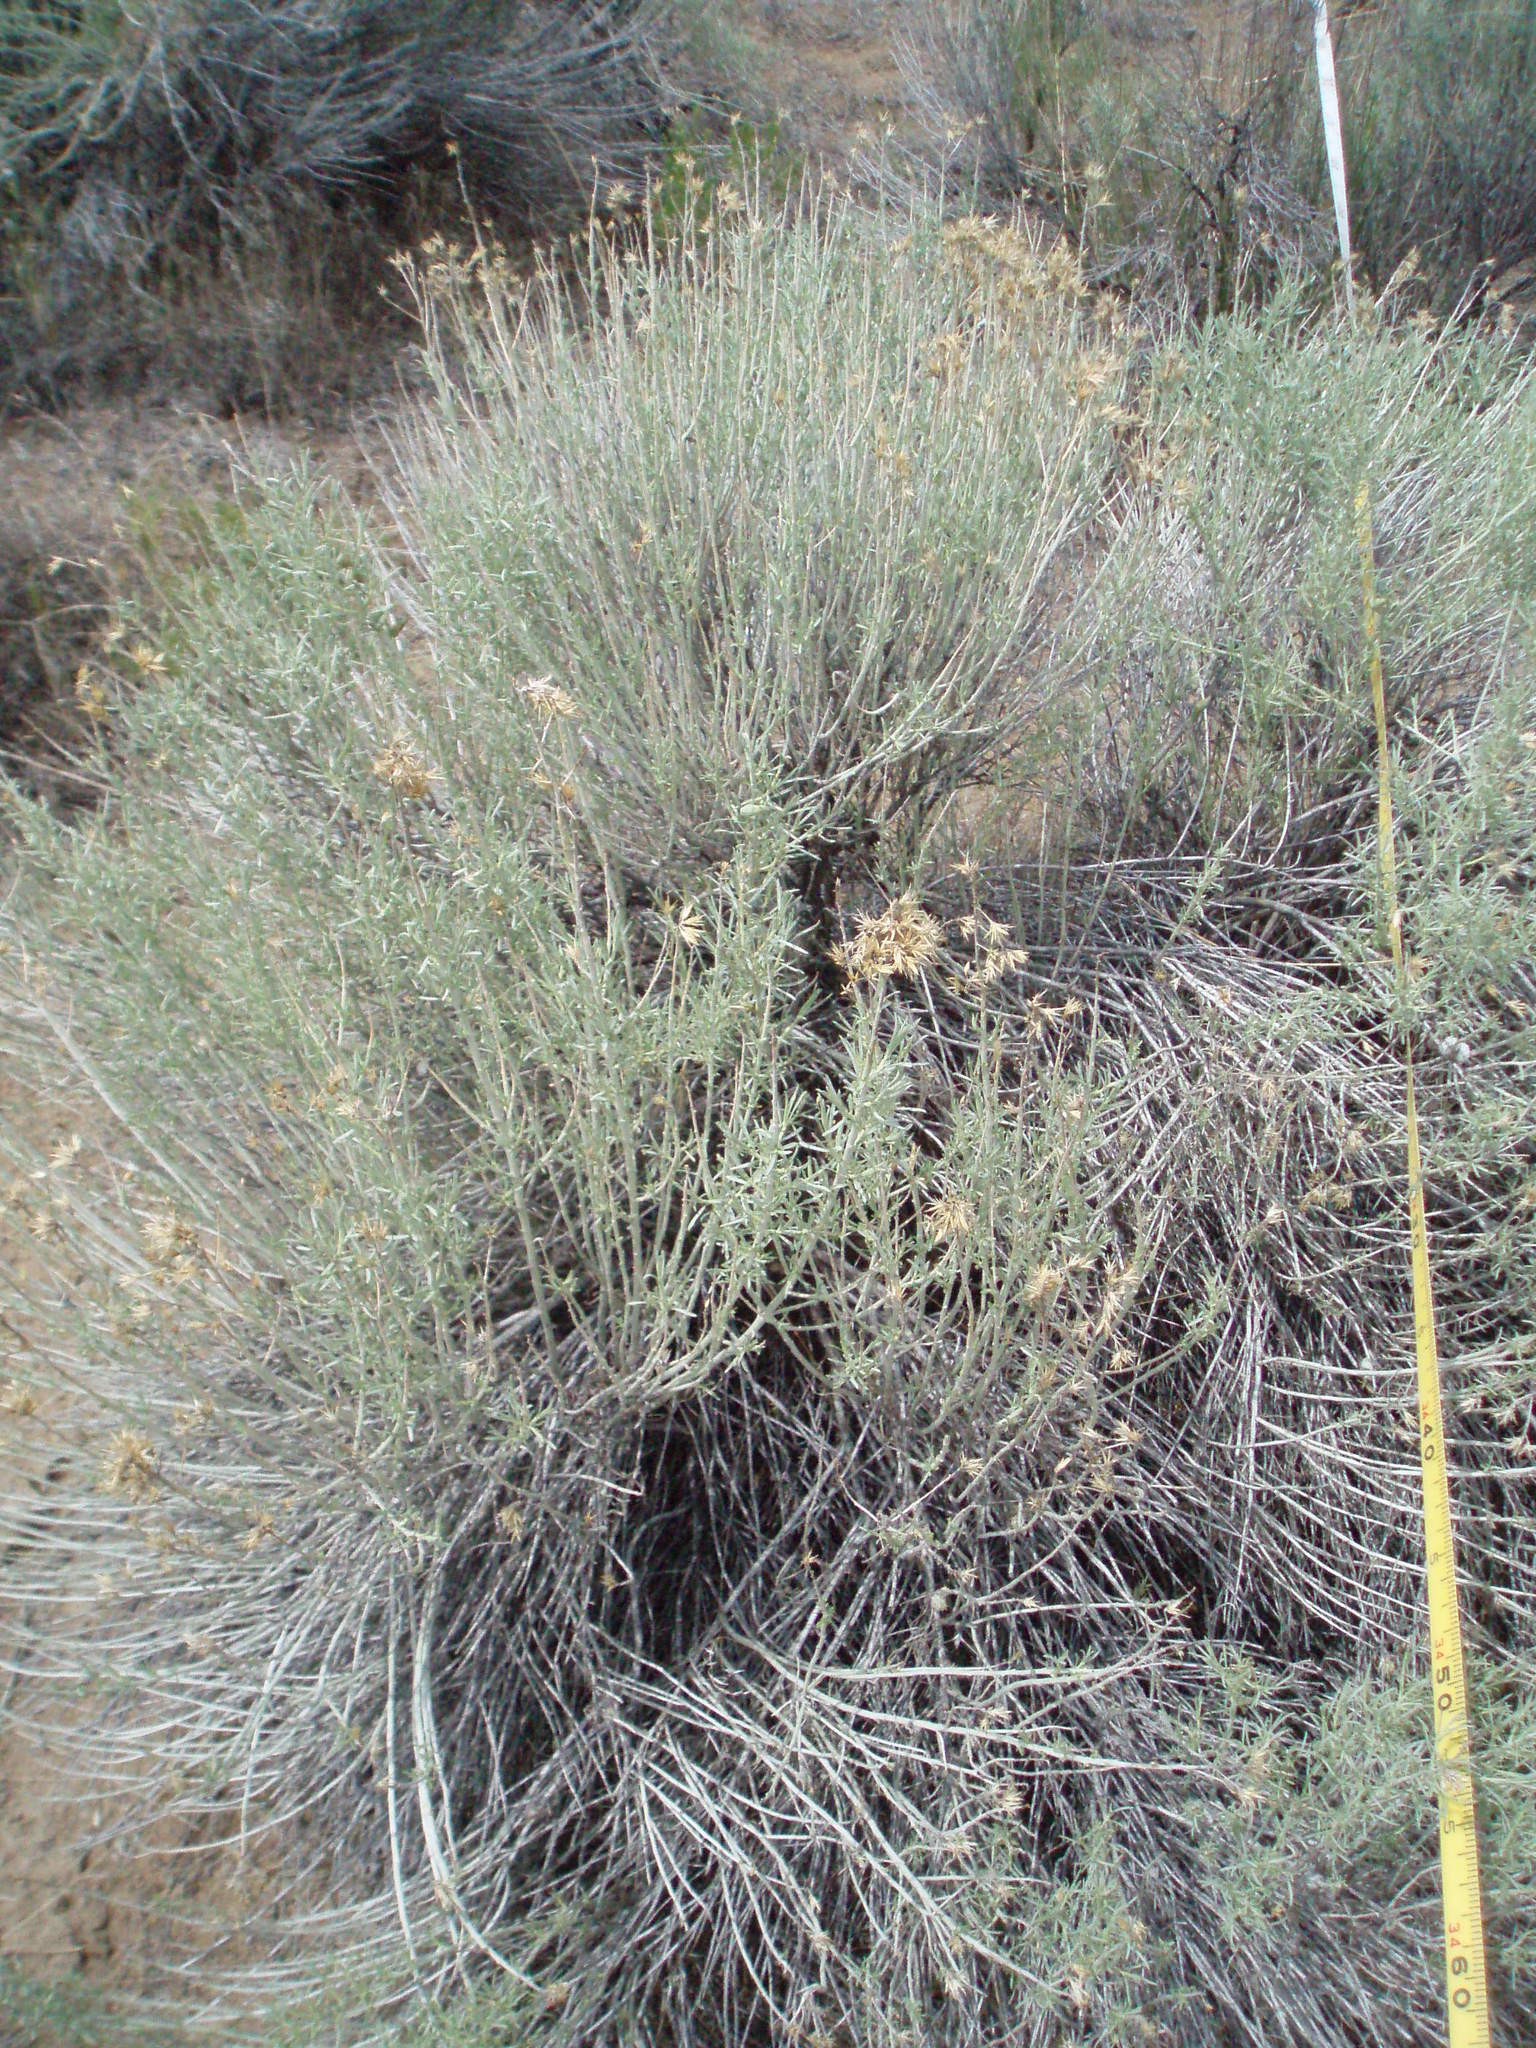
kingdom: Plantae
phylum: Tracheophyta
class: Magnoliopsida
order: Asterales
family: Asteraceae
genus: Ericameria
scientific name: Ericameria nauseosa
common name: Rubber rabbitbrush
